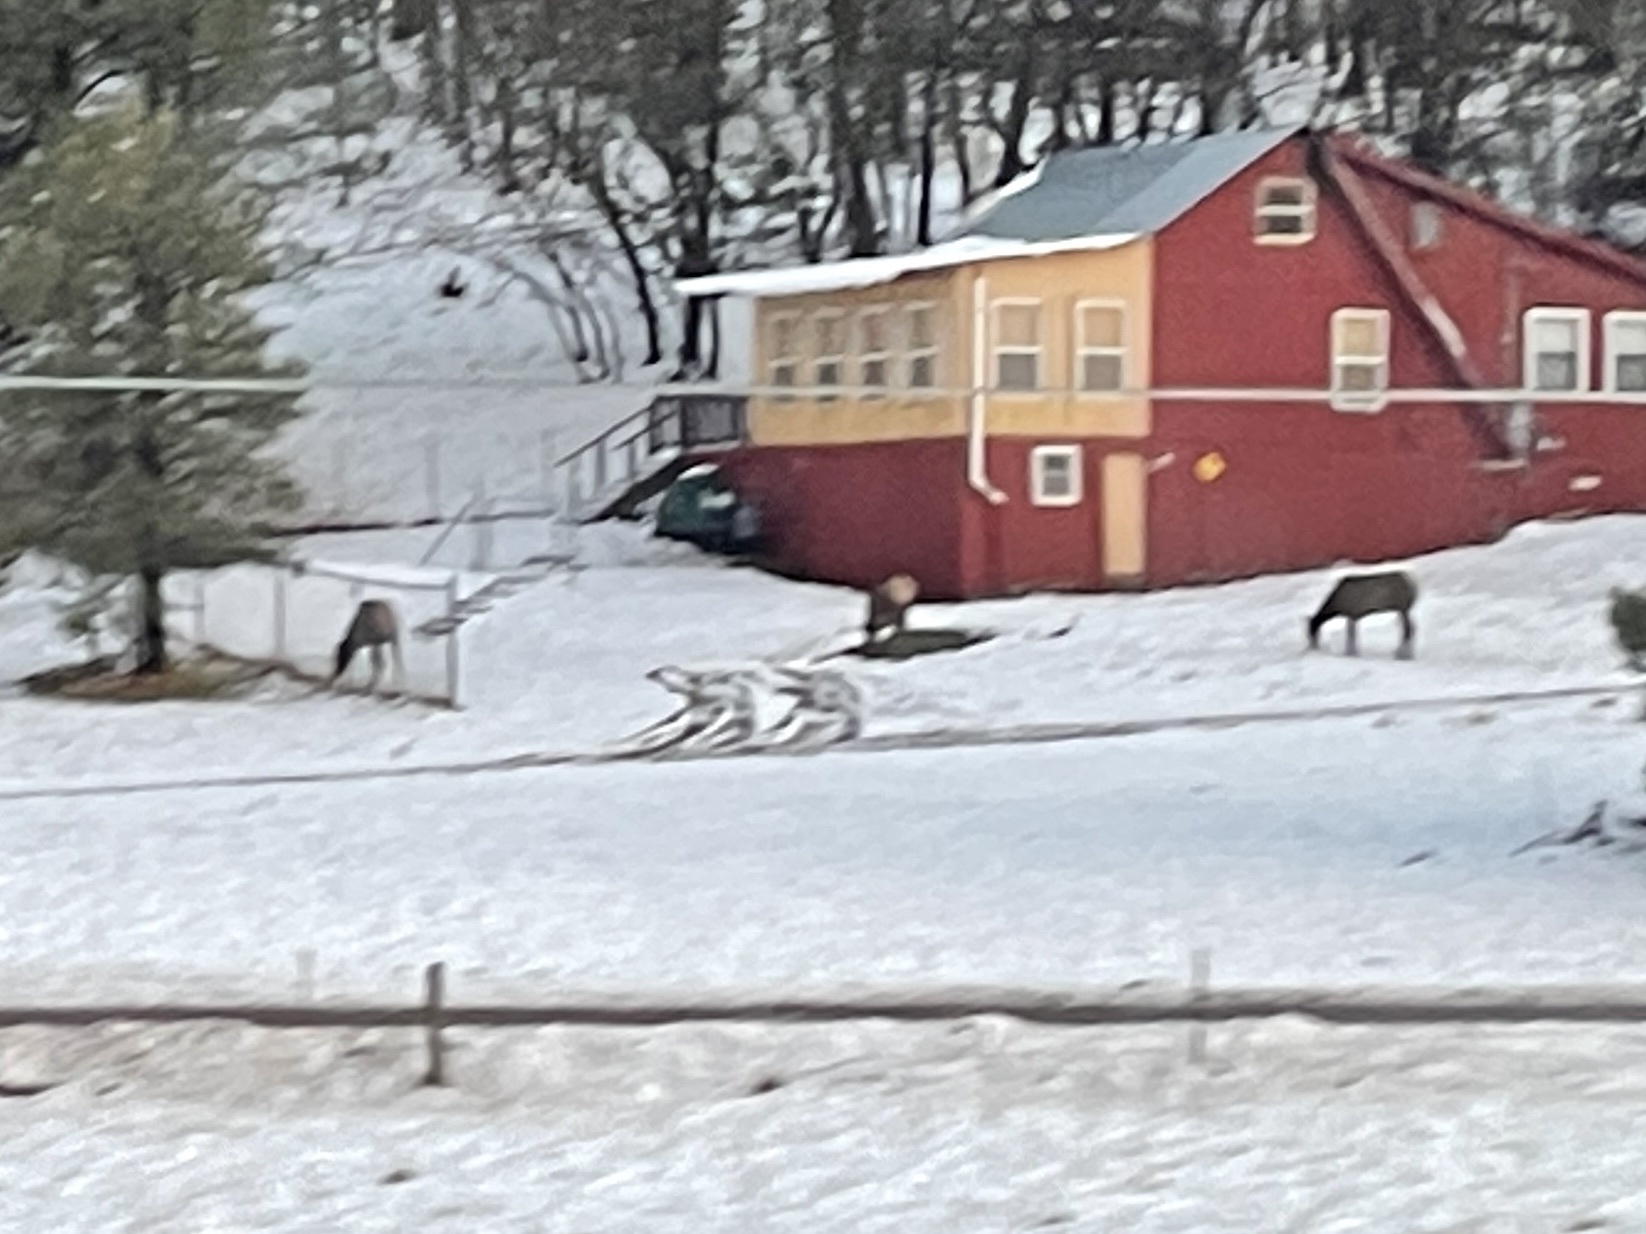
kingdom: Animalia
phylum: Chordata
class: Mammalia
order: Artiodactyla
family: Cervidae
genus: Cervus
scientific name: Cervus elaphus
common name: Red deer
